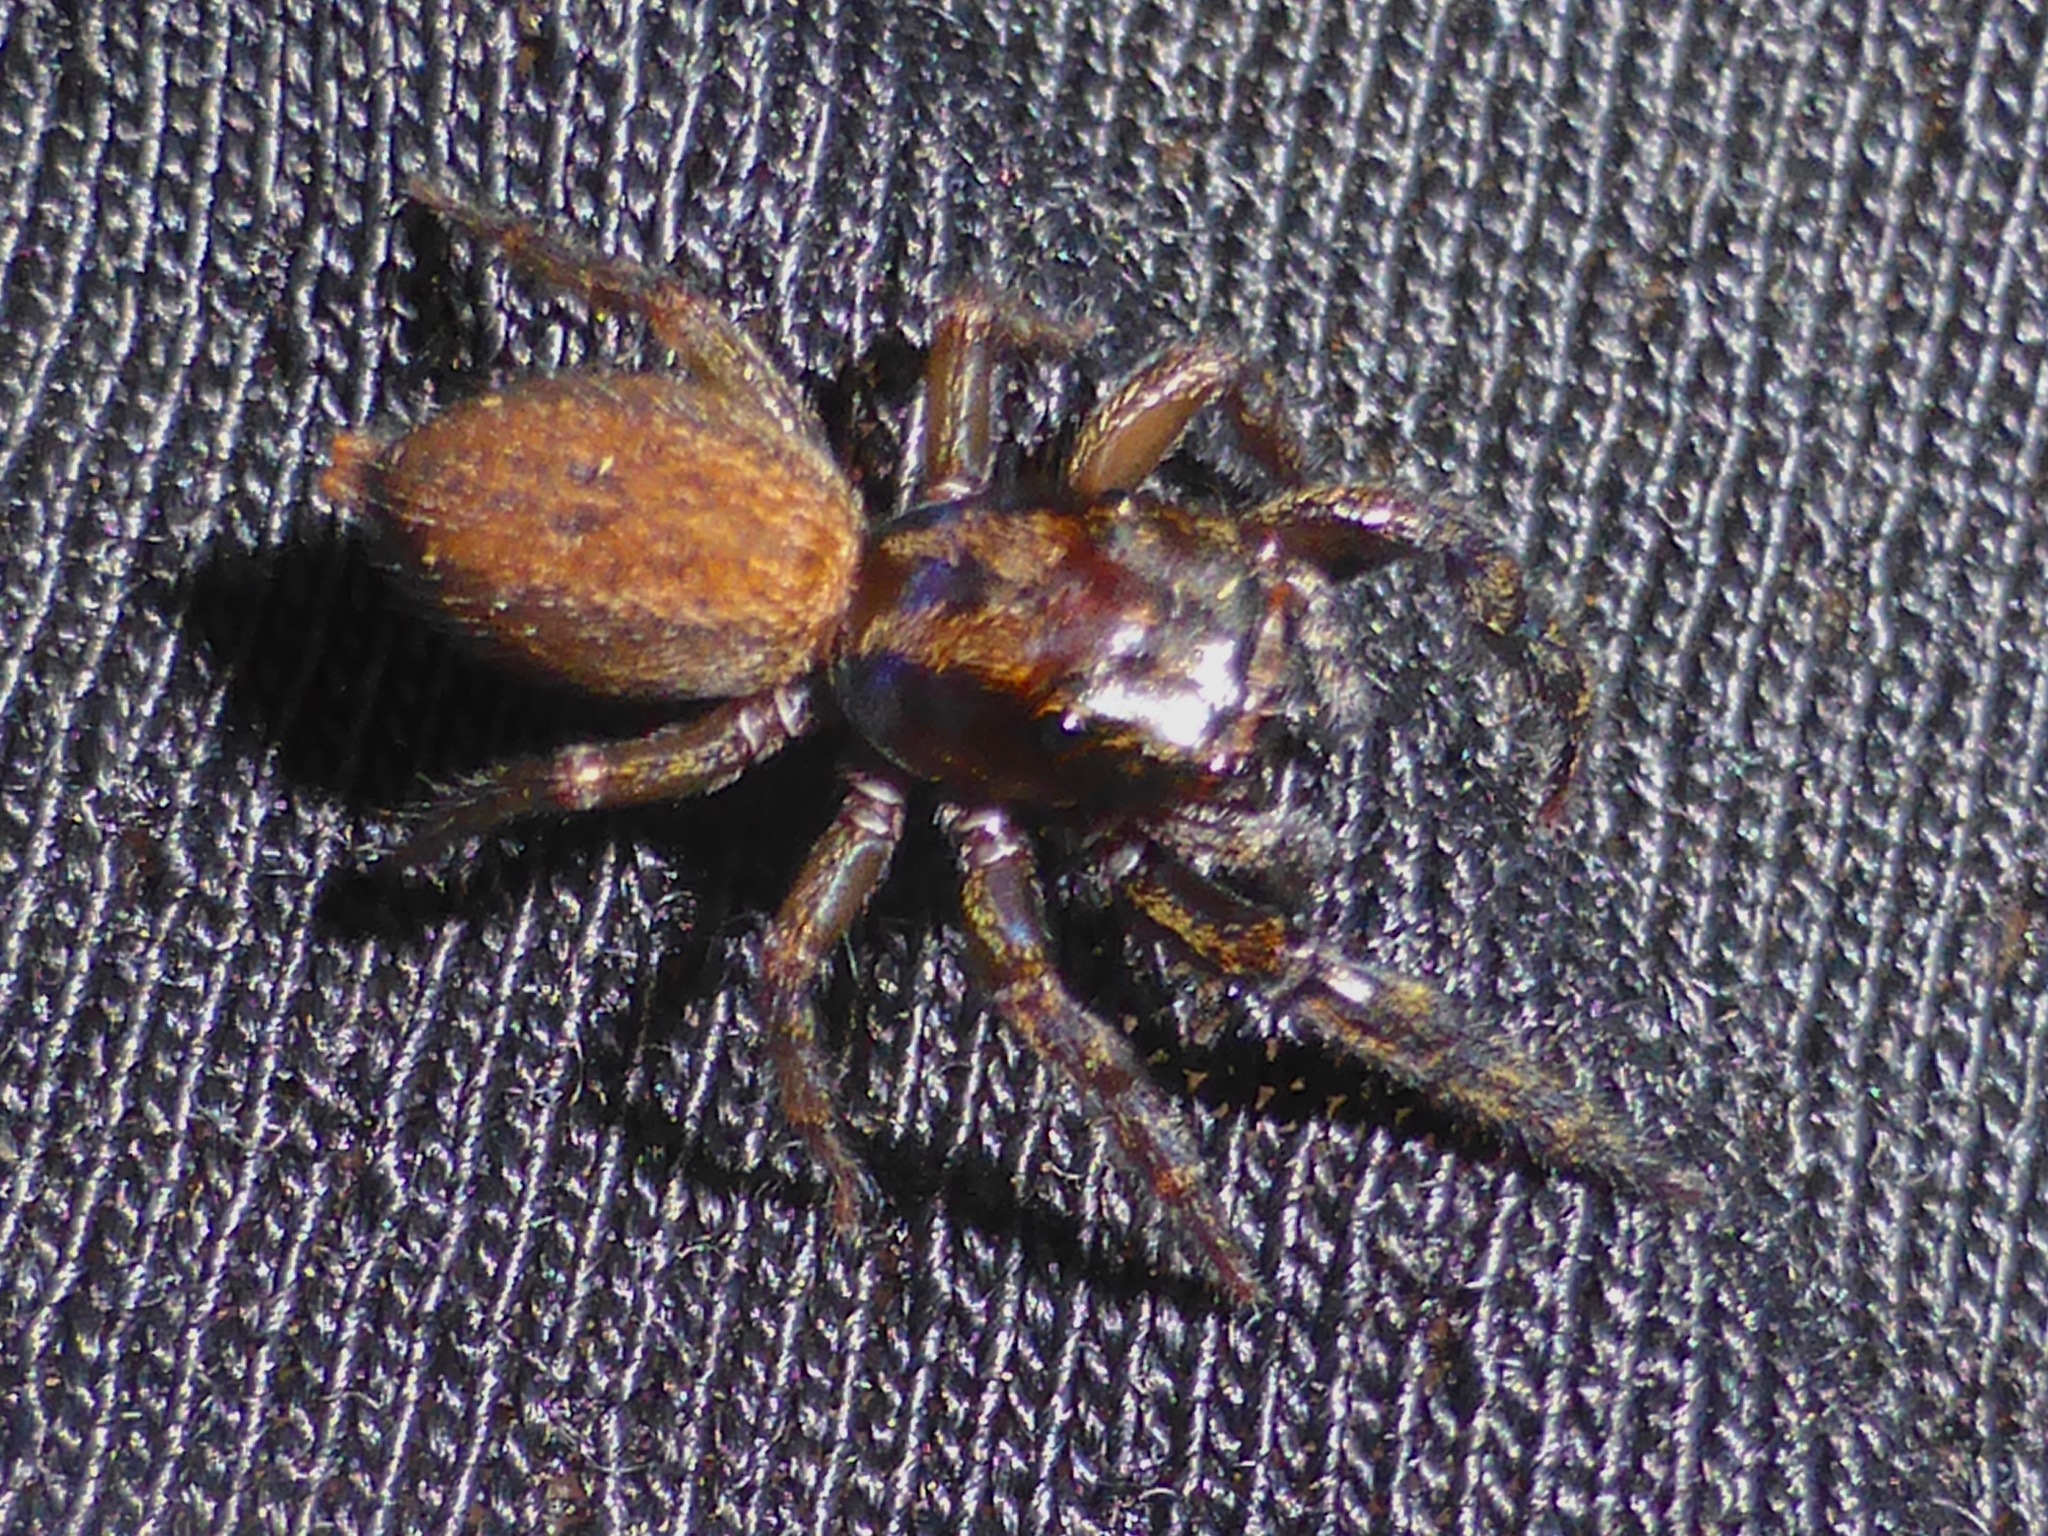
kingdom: Animalia
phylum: Arthropoda
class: Arachnida
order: Araneae
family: Salticidae
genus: Trite
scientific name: Trite auricoma
